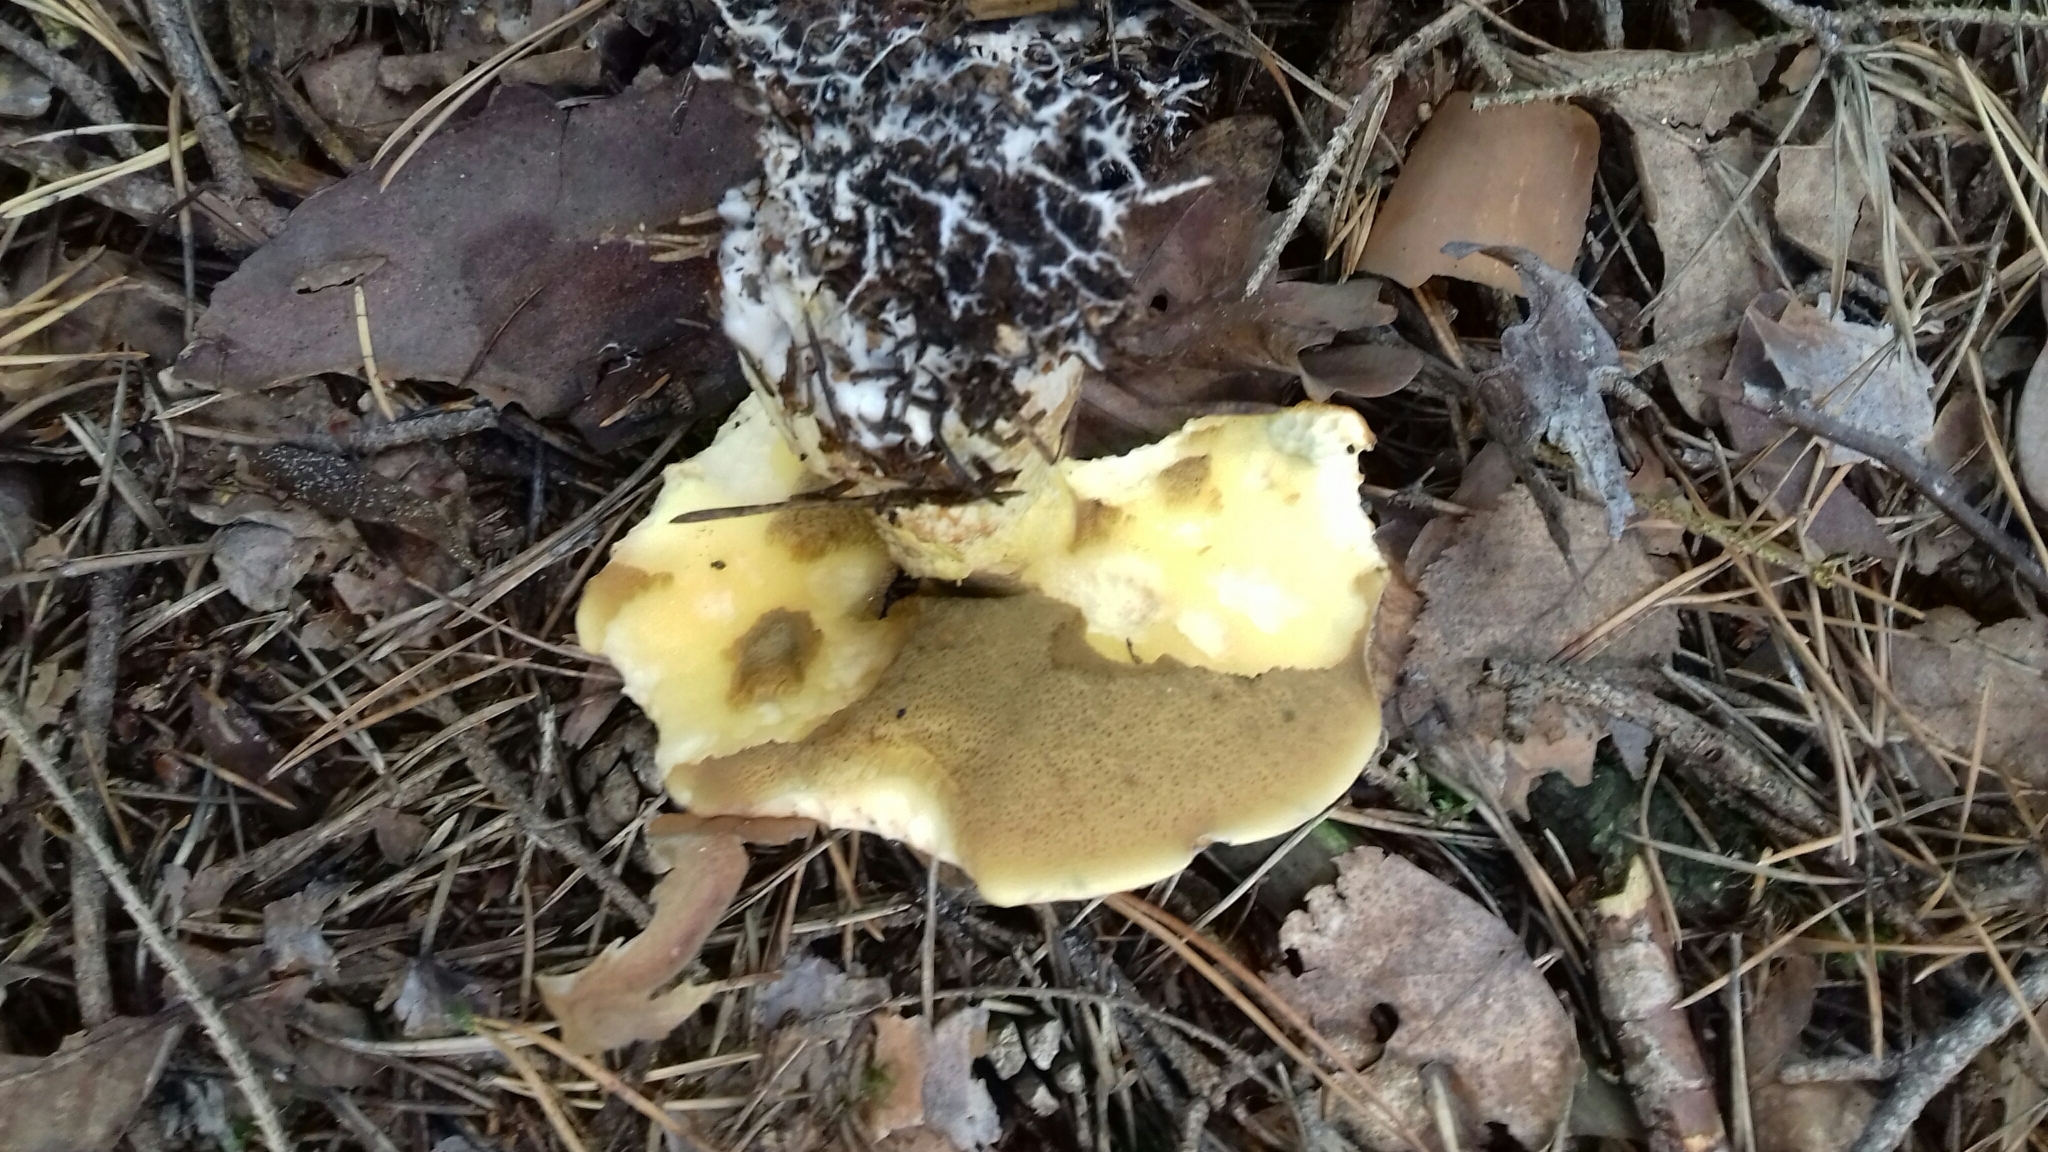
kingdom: Fungi
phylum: Basidiomycota
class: Agaricomycetes
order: Boletales
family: Suillaceae
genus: Suillus
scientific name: Suillus variegatus
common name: Velvet bolete
